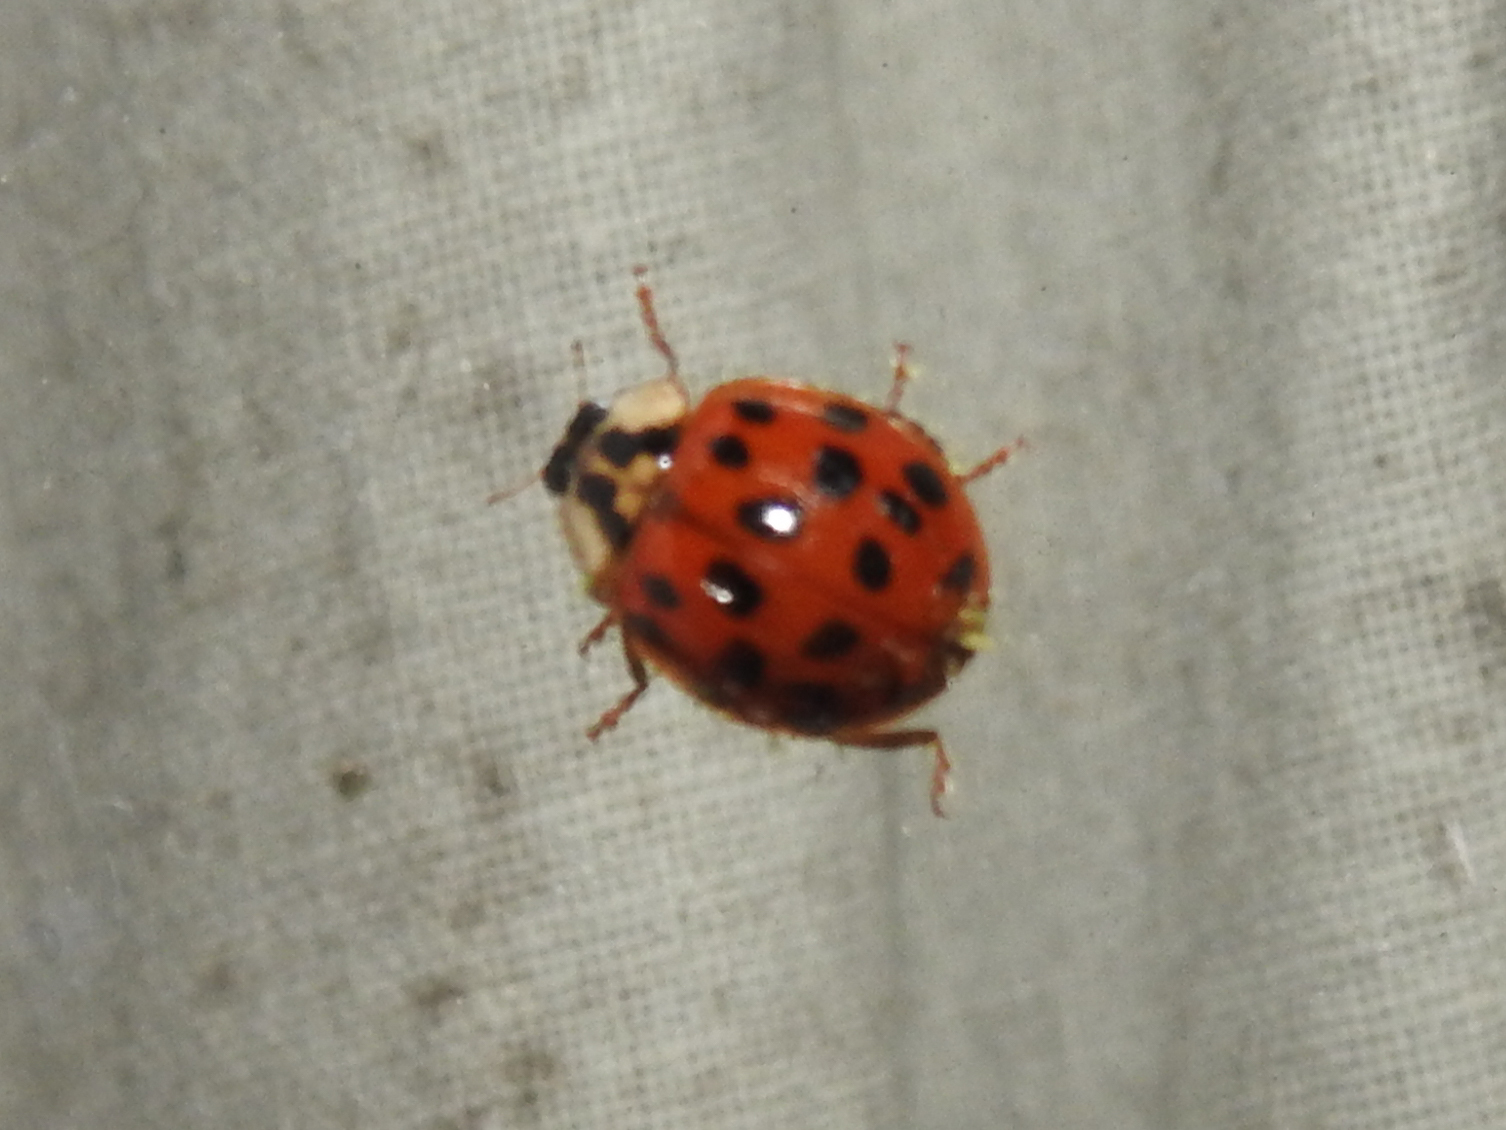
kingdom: Fungi
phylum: Ascomycota
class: Laboulbeniomycetes
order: Laboulbeniales
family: Laboulbeniaceae
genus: Hesperomyces
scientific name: Hesperomyces harmoniae
